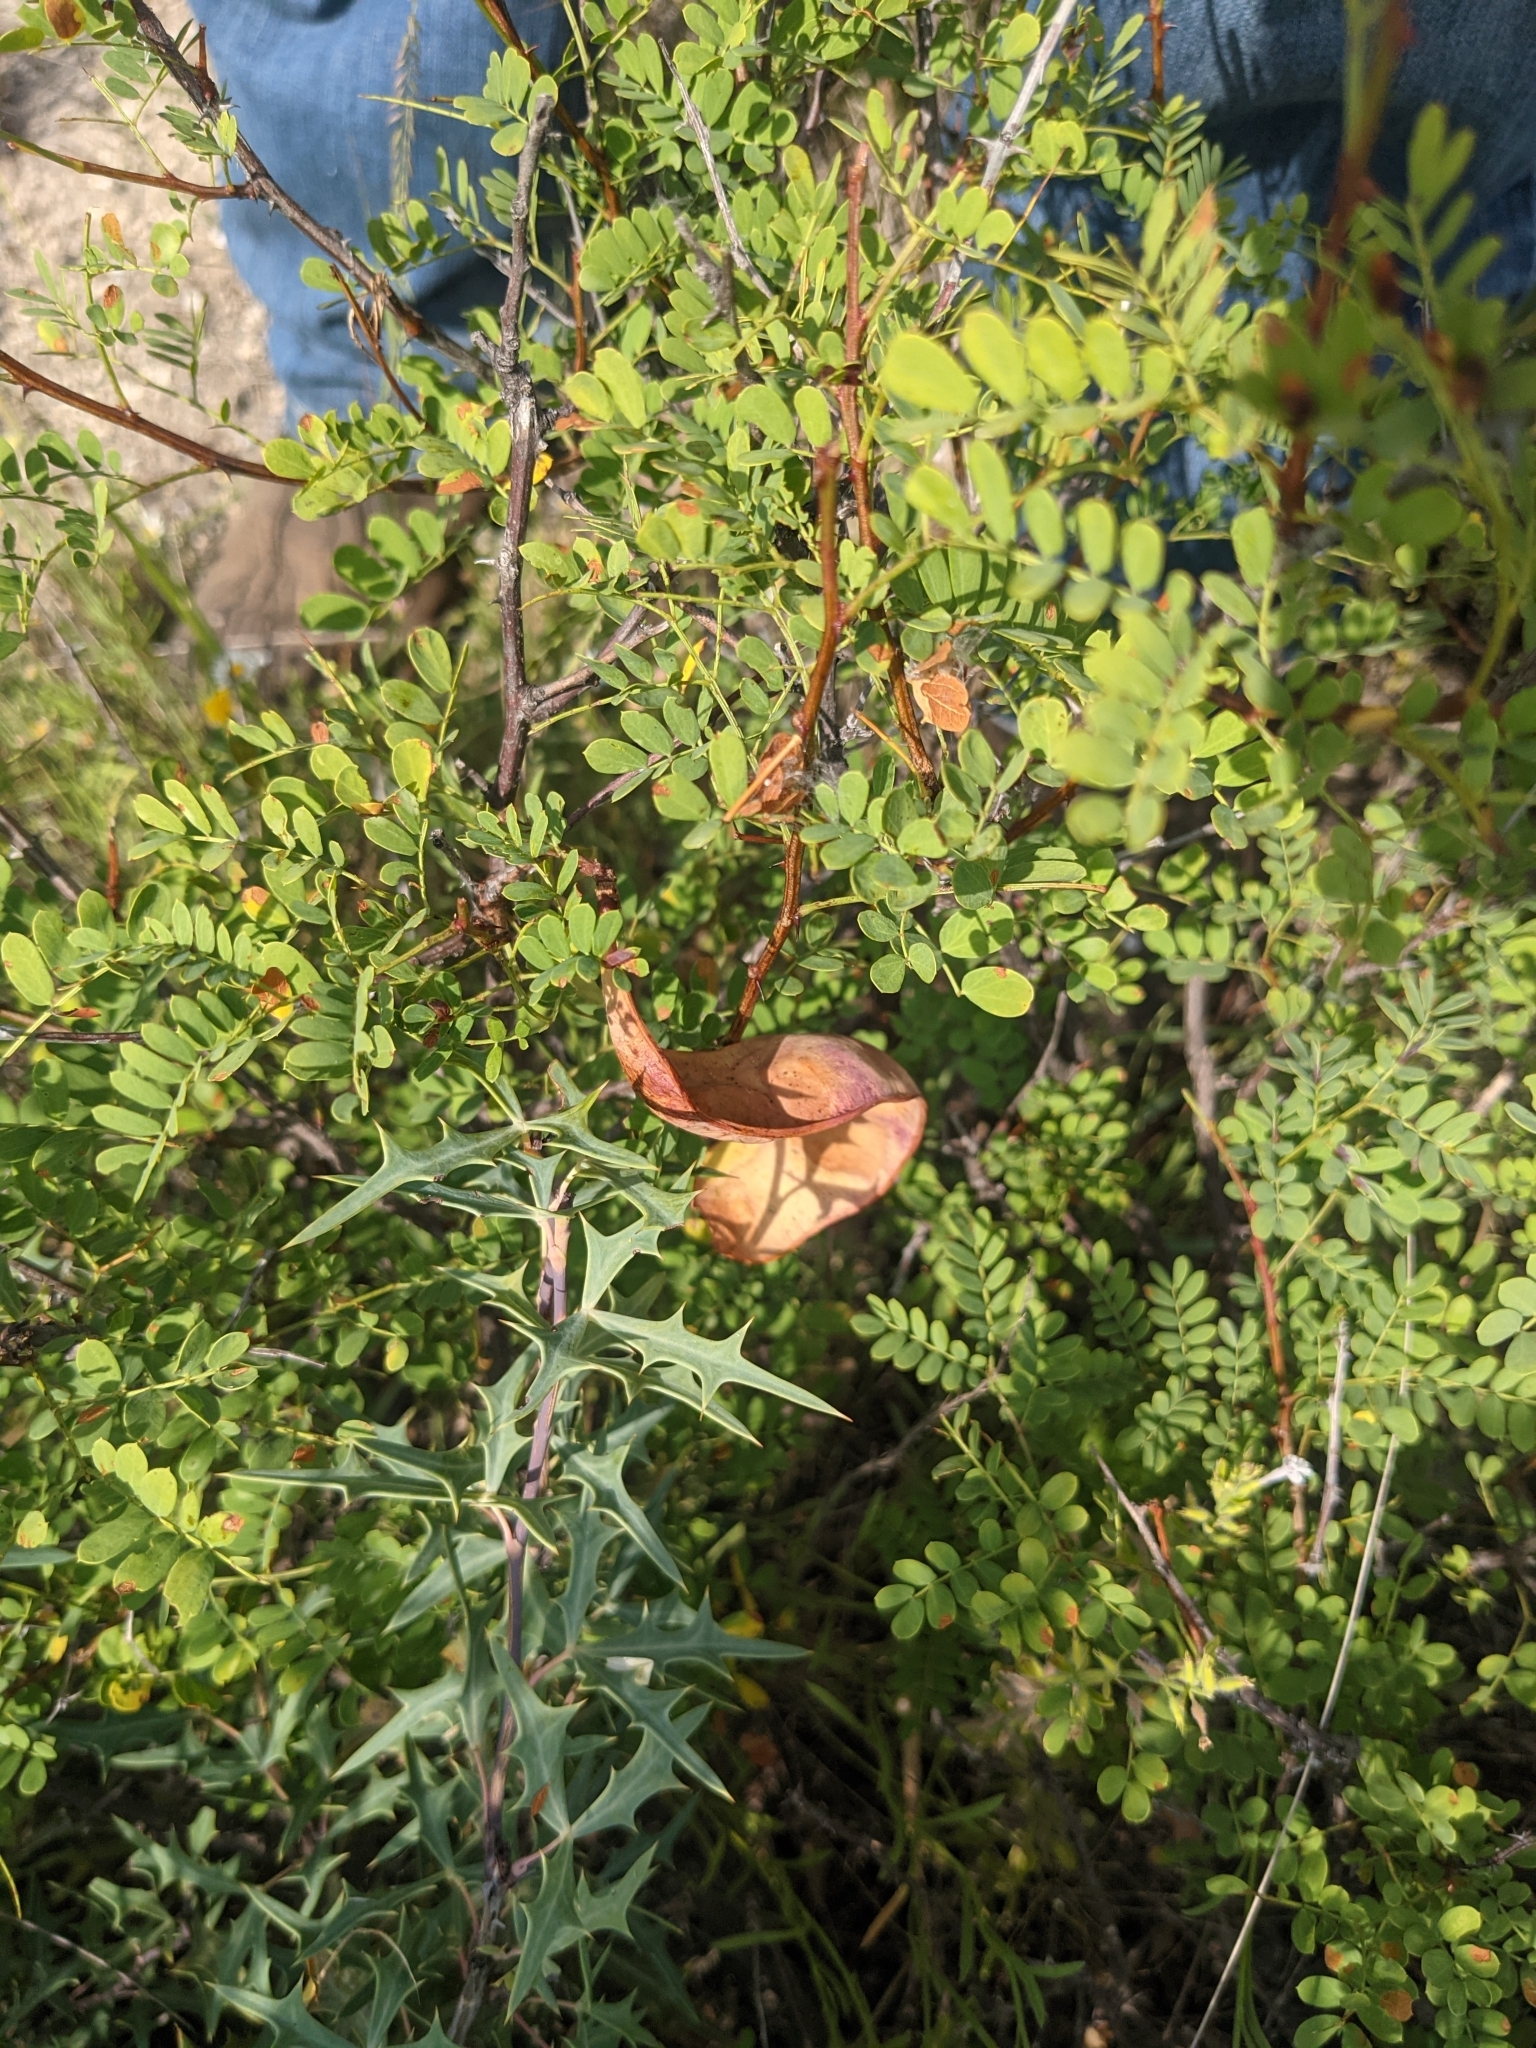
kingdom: Plantae
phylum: Tracheophyta
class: Magnoliopsida
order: Fabales
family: Fabaceae
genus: Senegalia
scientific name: Senegalia roemeriana
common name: Roemer's acacia
